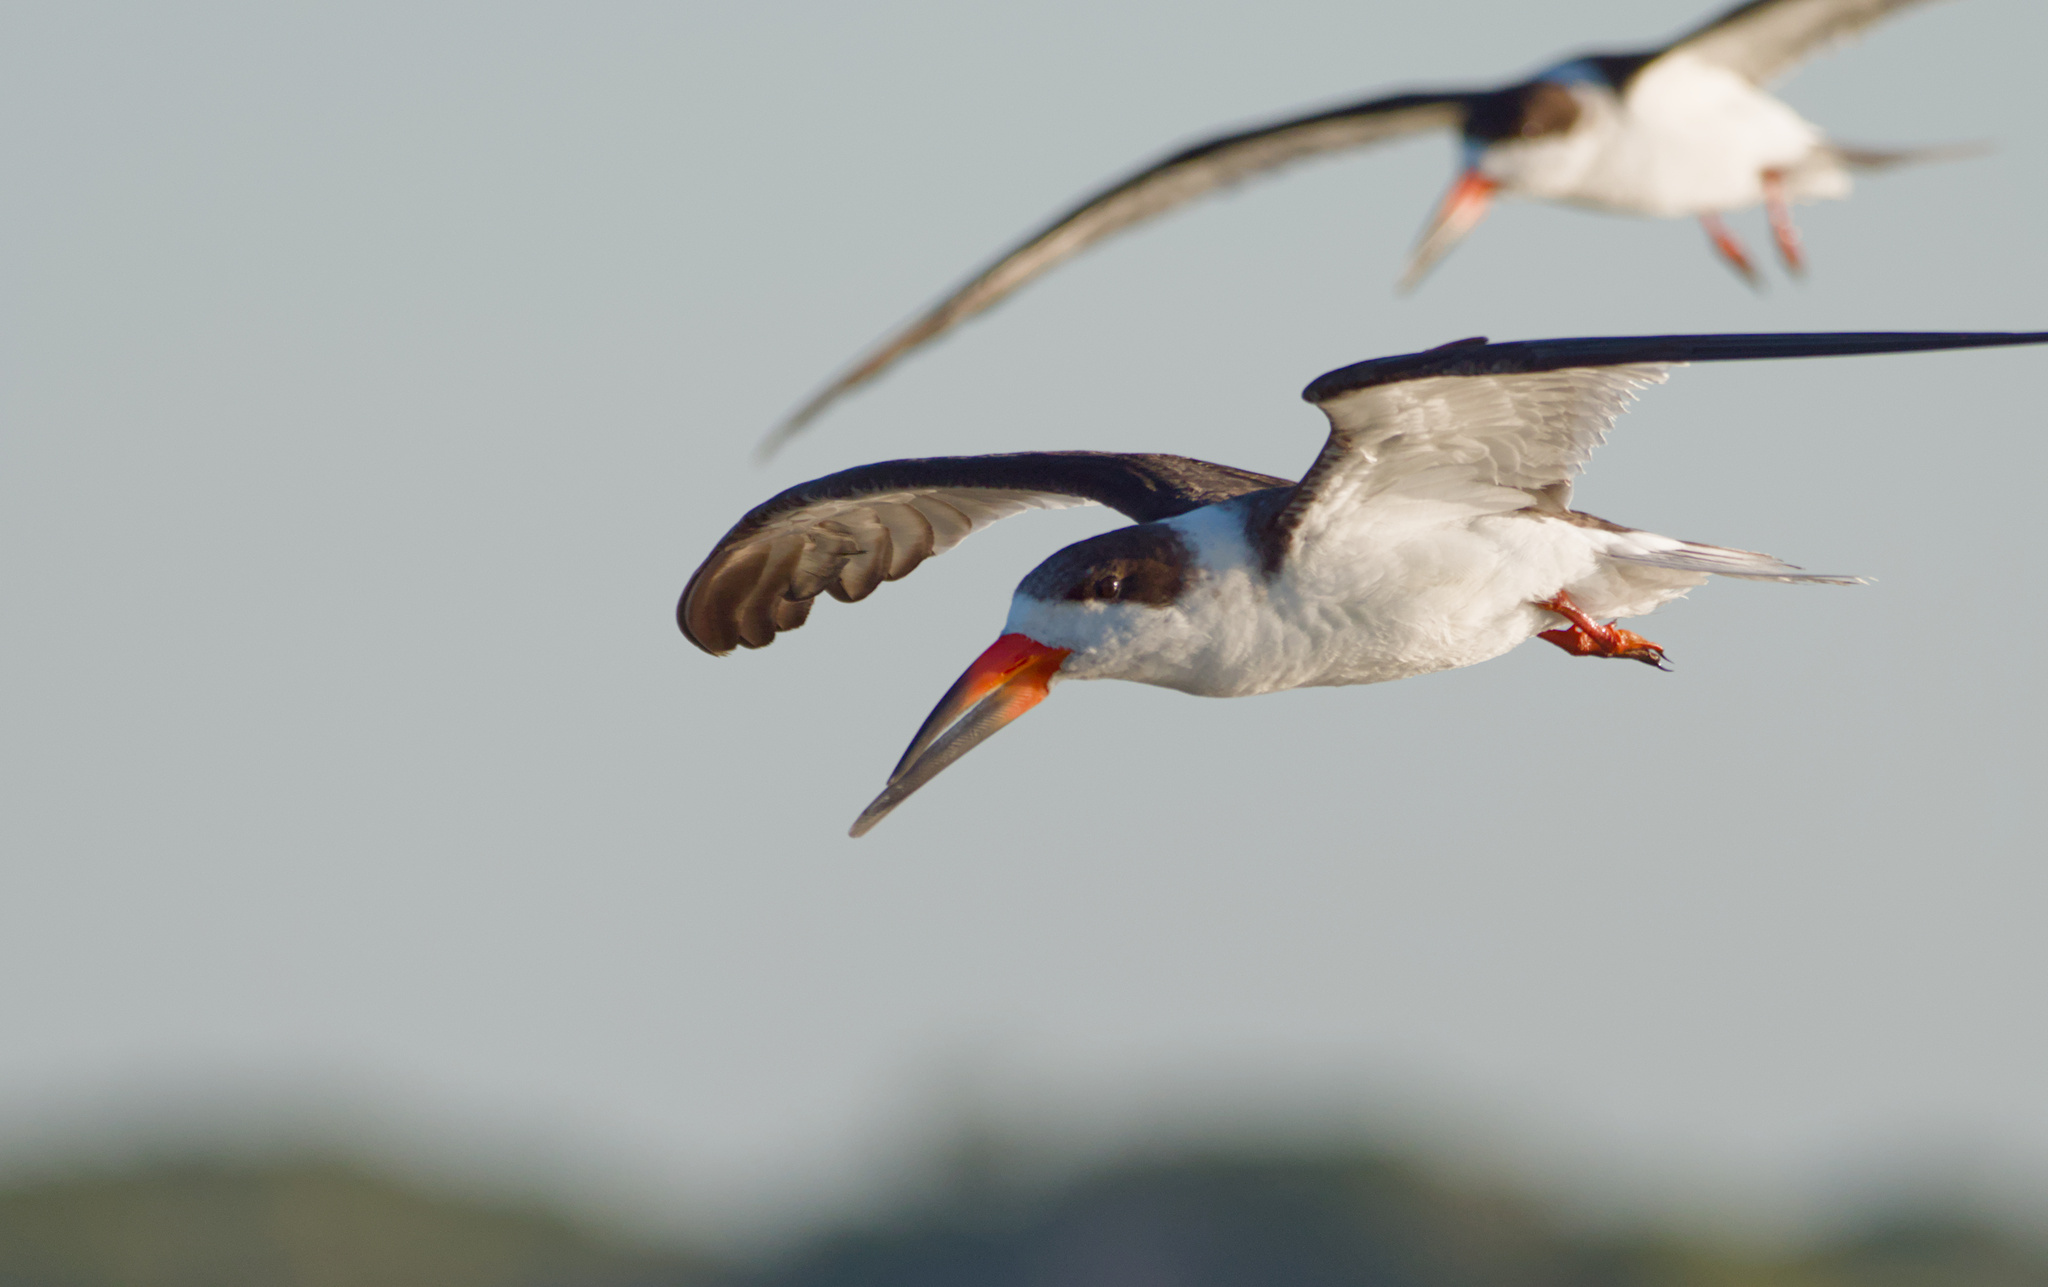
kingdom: Animalia
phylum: Chordata
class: Aves
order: Charadriiformes
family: Laridae
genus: Rynchops
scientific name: Rynchops niger
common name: Black skimmer
